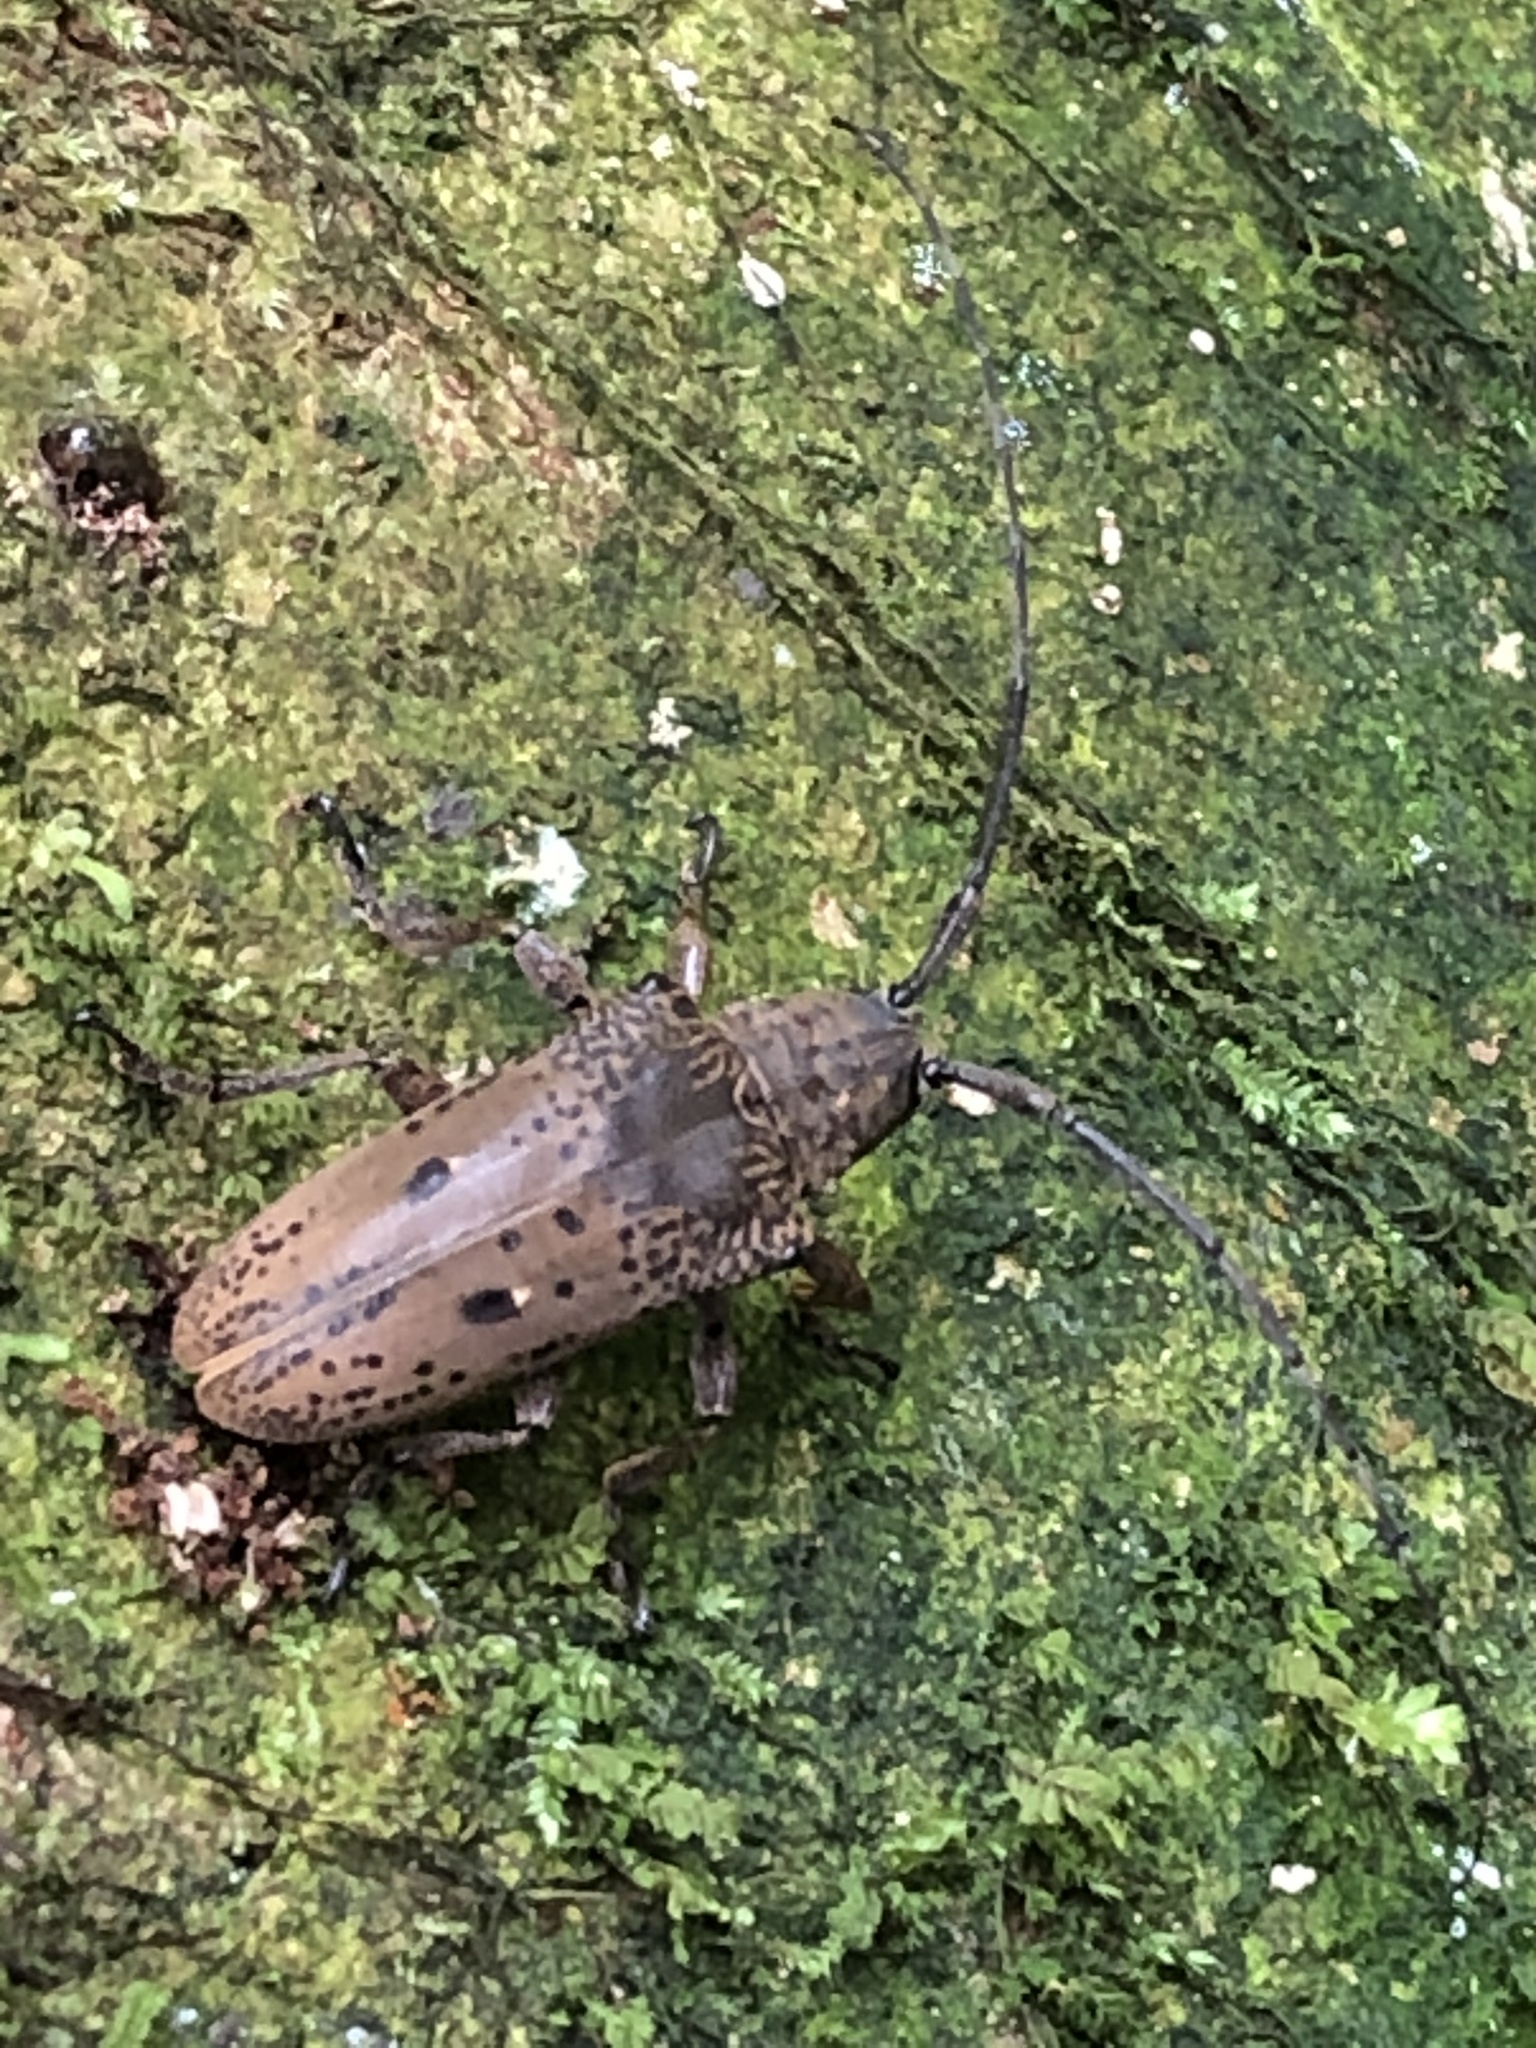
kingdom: Animalia
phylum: Arthropoda
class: Insecta
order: Coleoptera
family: Cerambycidae
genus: Tybalmia
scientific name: Tybalmia pupillata
